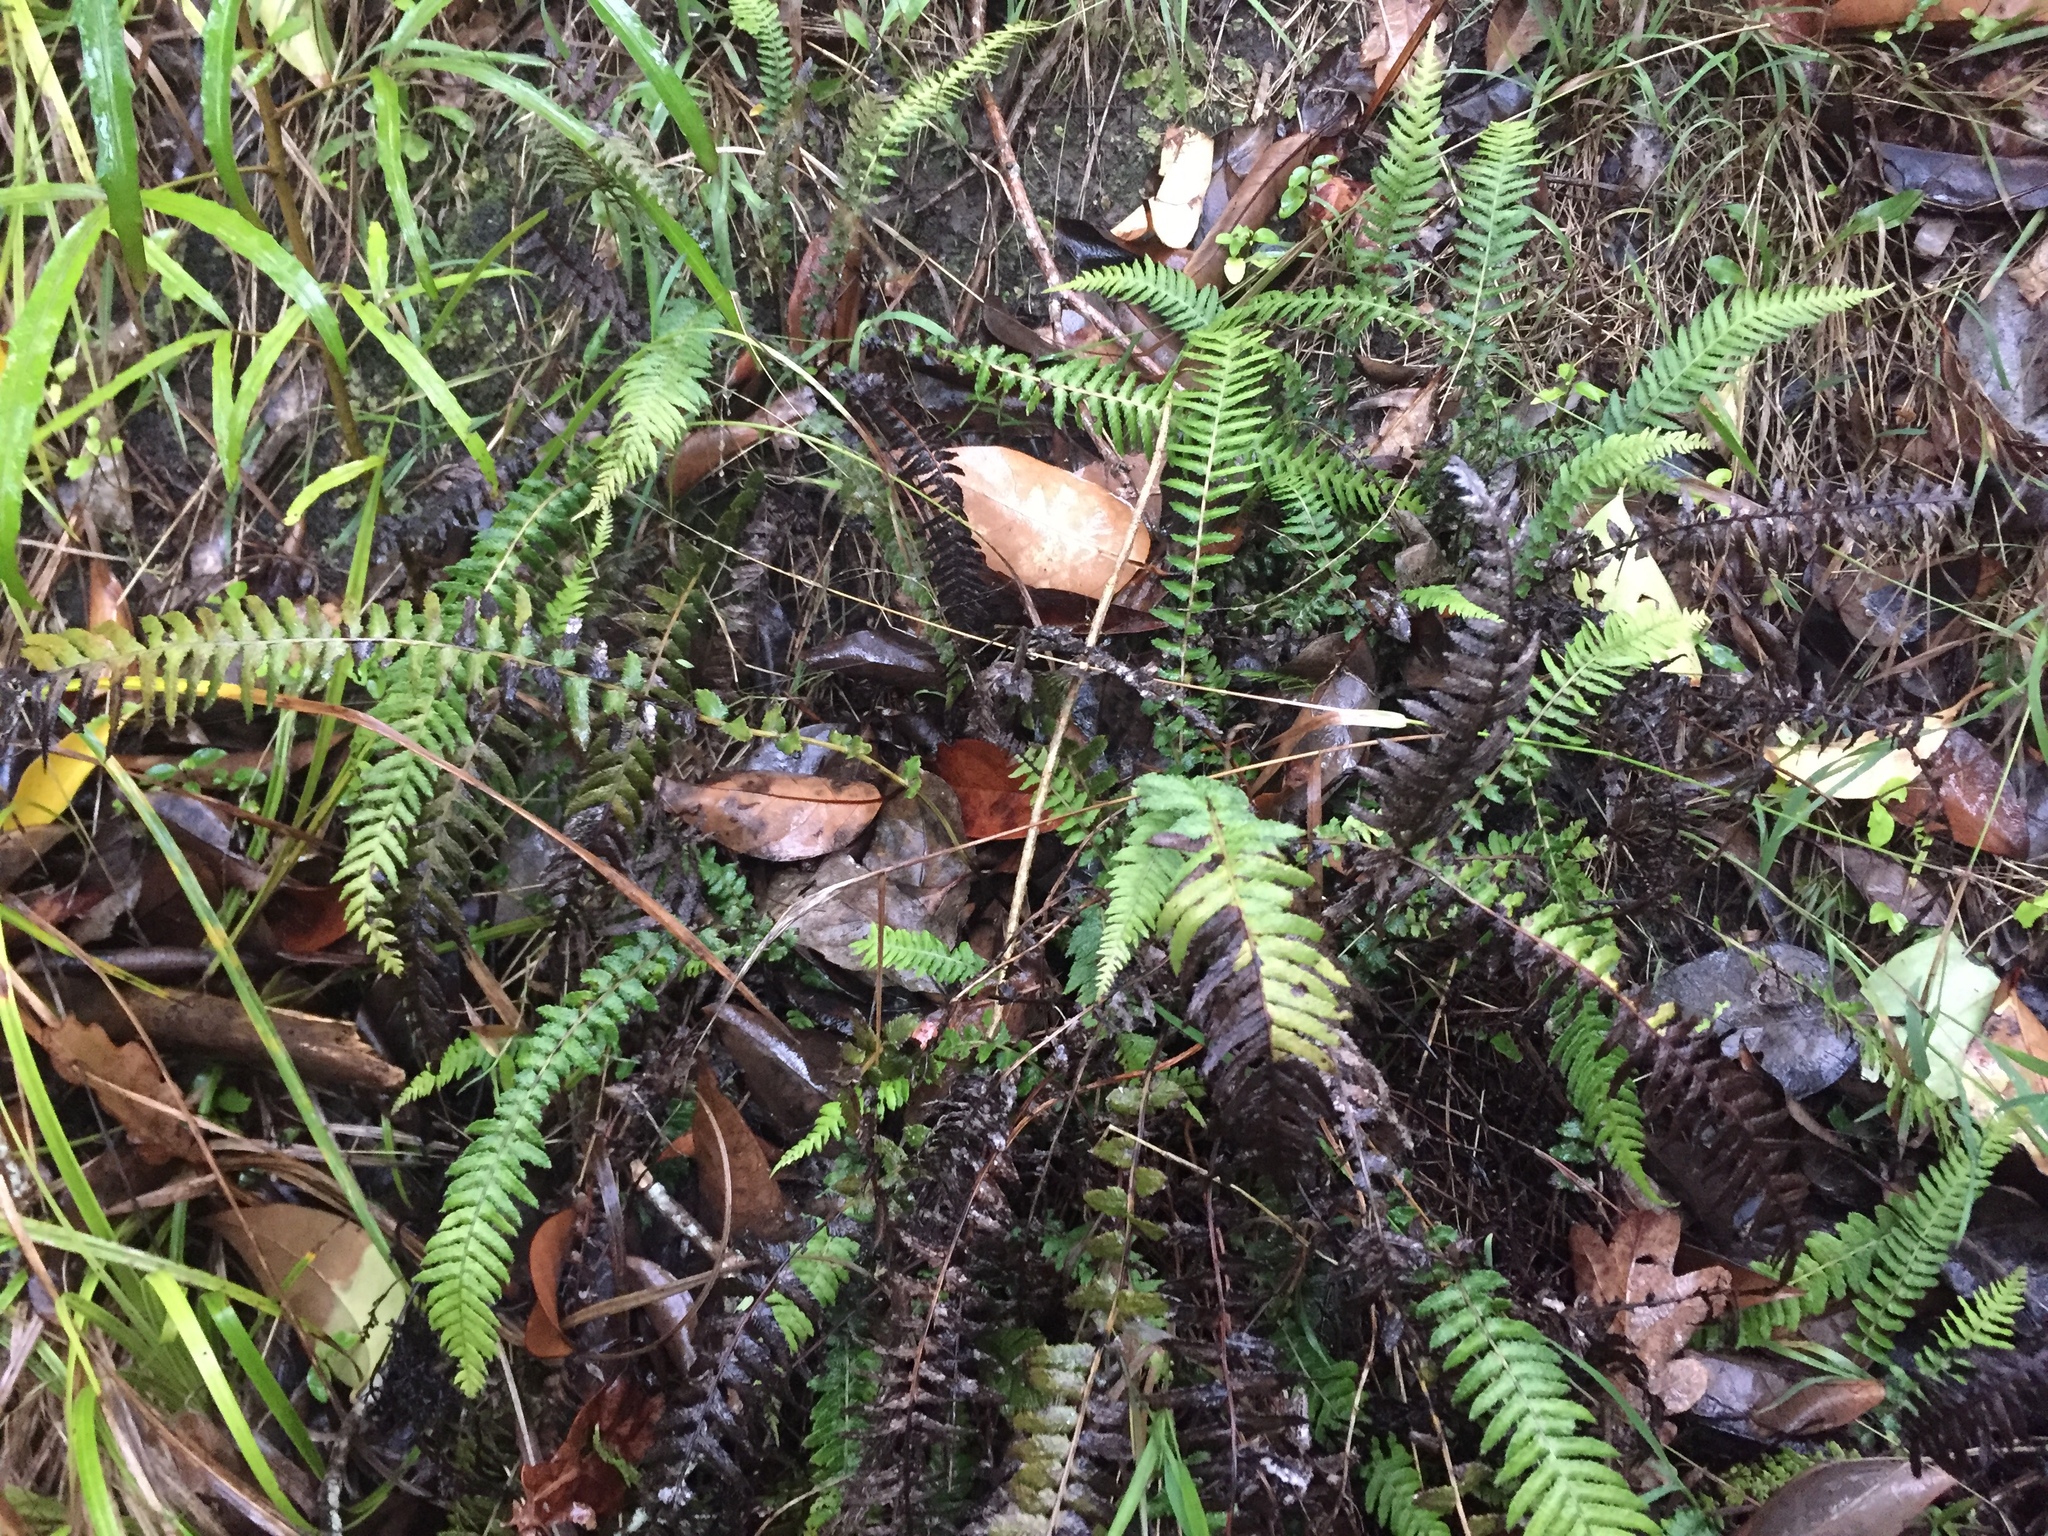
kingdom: Plantae
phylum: Tracheophyta
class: Polypodiopsida
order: Polypodiales
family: Blechnaceae
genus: Doodia
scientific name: Doodia australis
